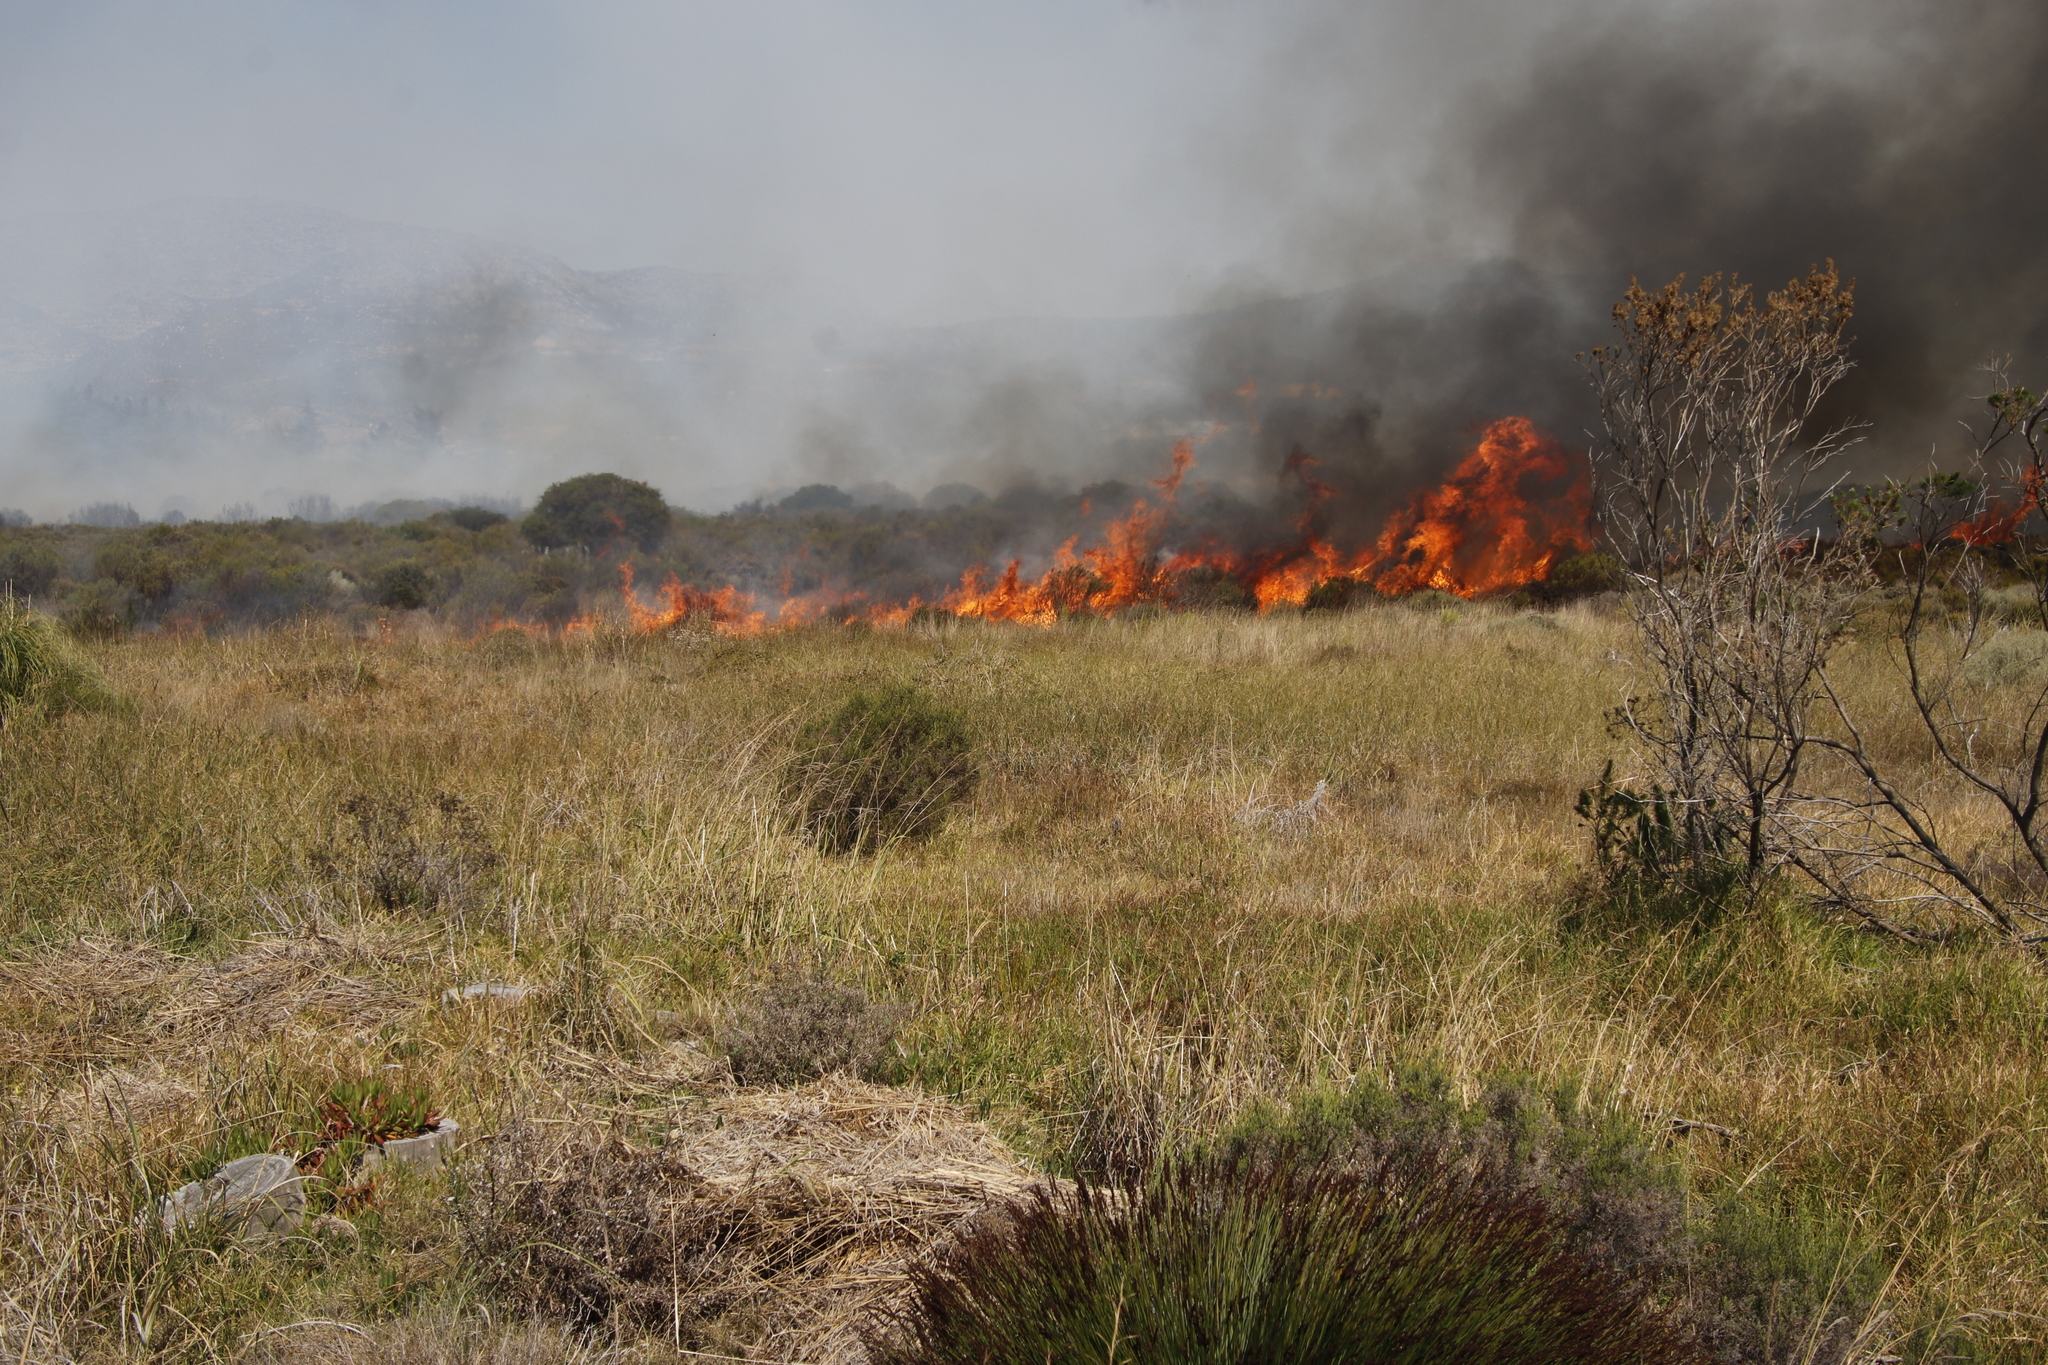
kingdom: Plantae
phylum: Tracheophyta
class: Liliopsida
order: Poales
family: Poaceae
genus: Stenotaphrum
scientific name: Stenotaphrum secundatum
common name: St. augustine grass
